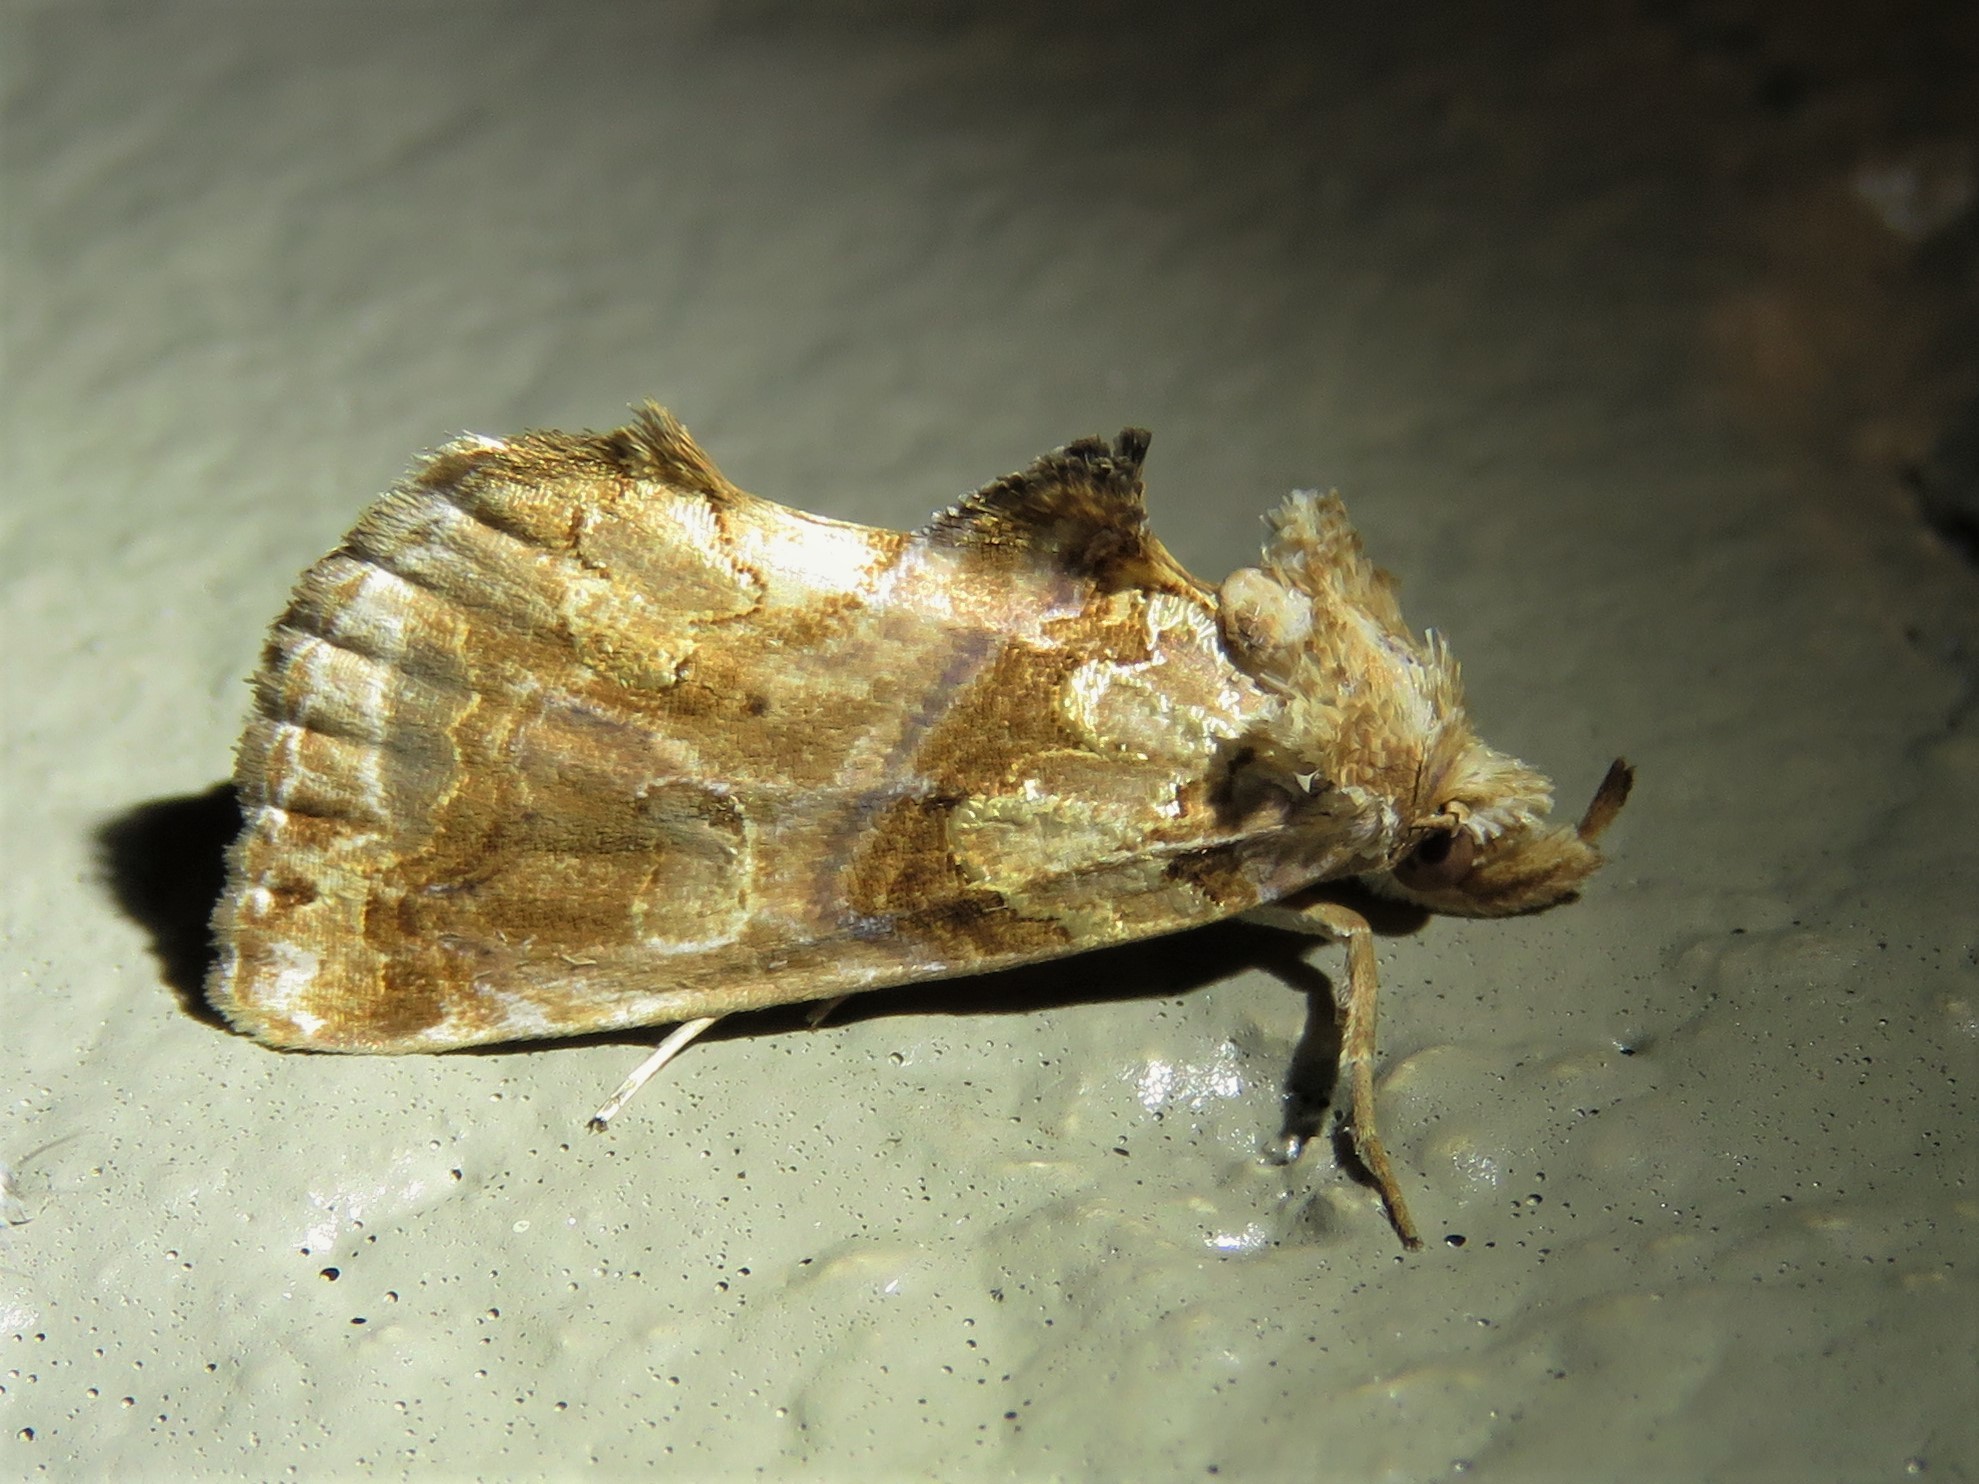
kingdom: Animalia
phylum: Arthropoda
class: Insecta
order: Lepidoptera
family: Erebidae
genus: Plusiodonta
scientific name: Plusiodonta compressipalpis
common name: Moonseed moth
